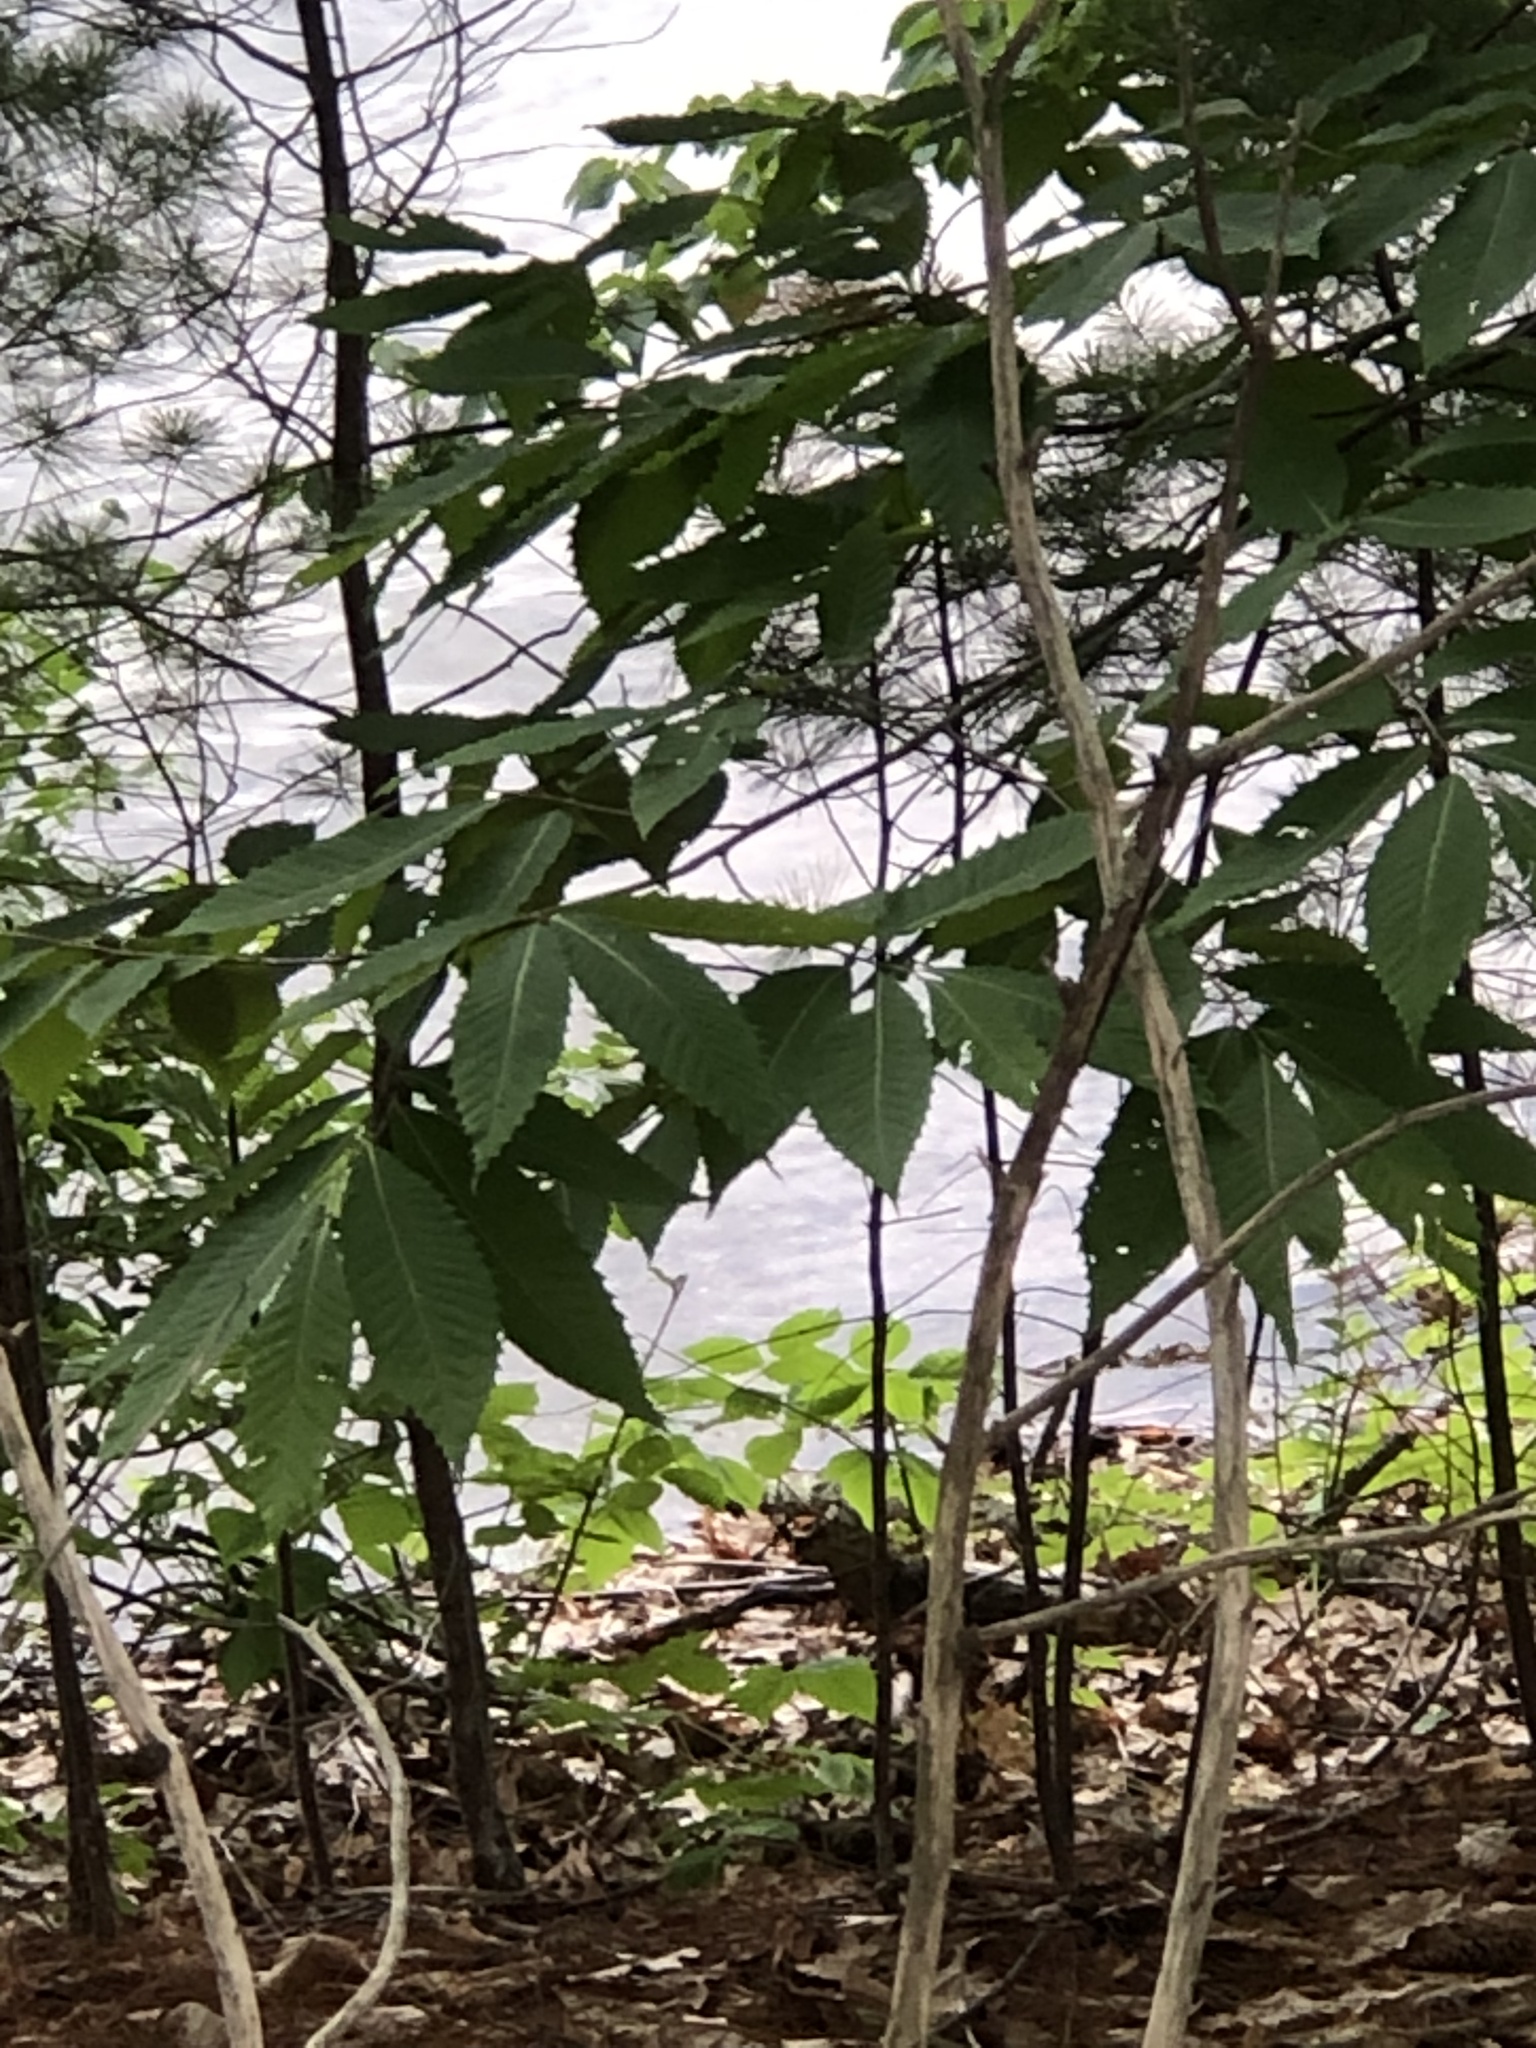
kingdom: Plantae
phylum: Tracheophyta
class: Magnoliopsida
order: Fagales
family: Fagaceae
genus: Castanea
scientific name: Castanea dentata
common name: American chestnut
